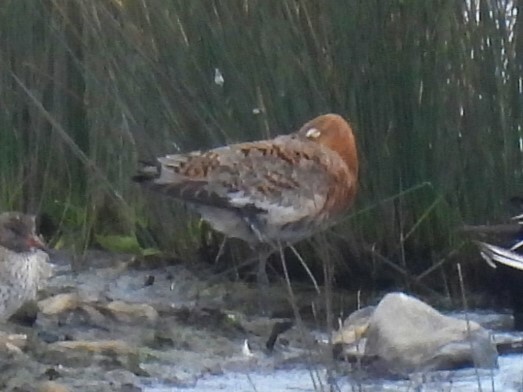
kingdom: Animalia
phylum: Chordata
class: Aves
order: Charadriiformes
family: Scolopacidae
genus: Limosa
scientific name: Limosa limosa
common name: Black-tailed godwit
